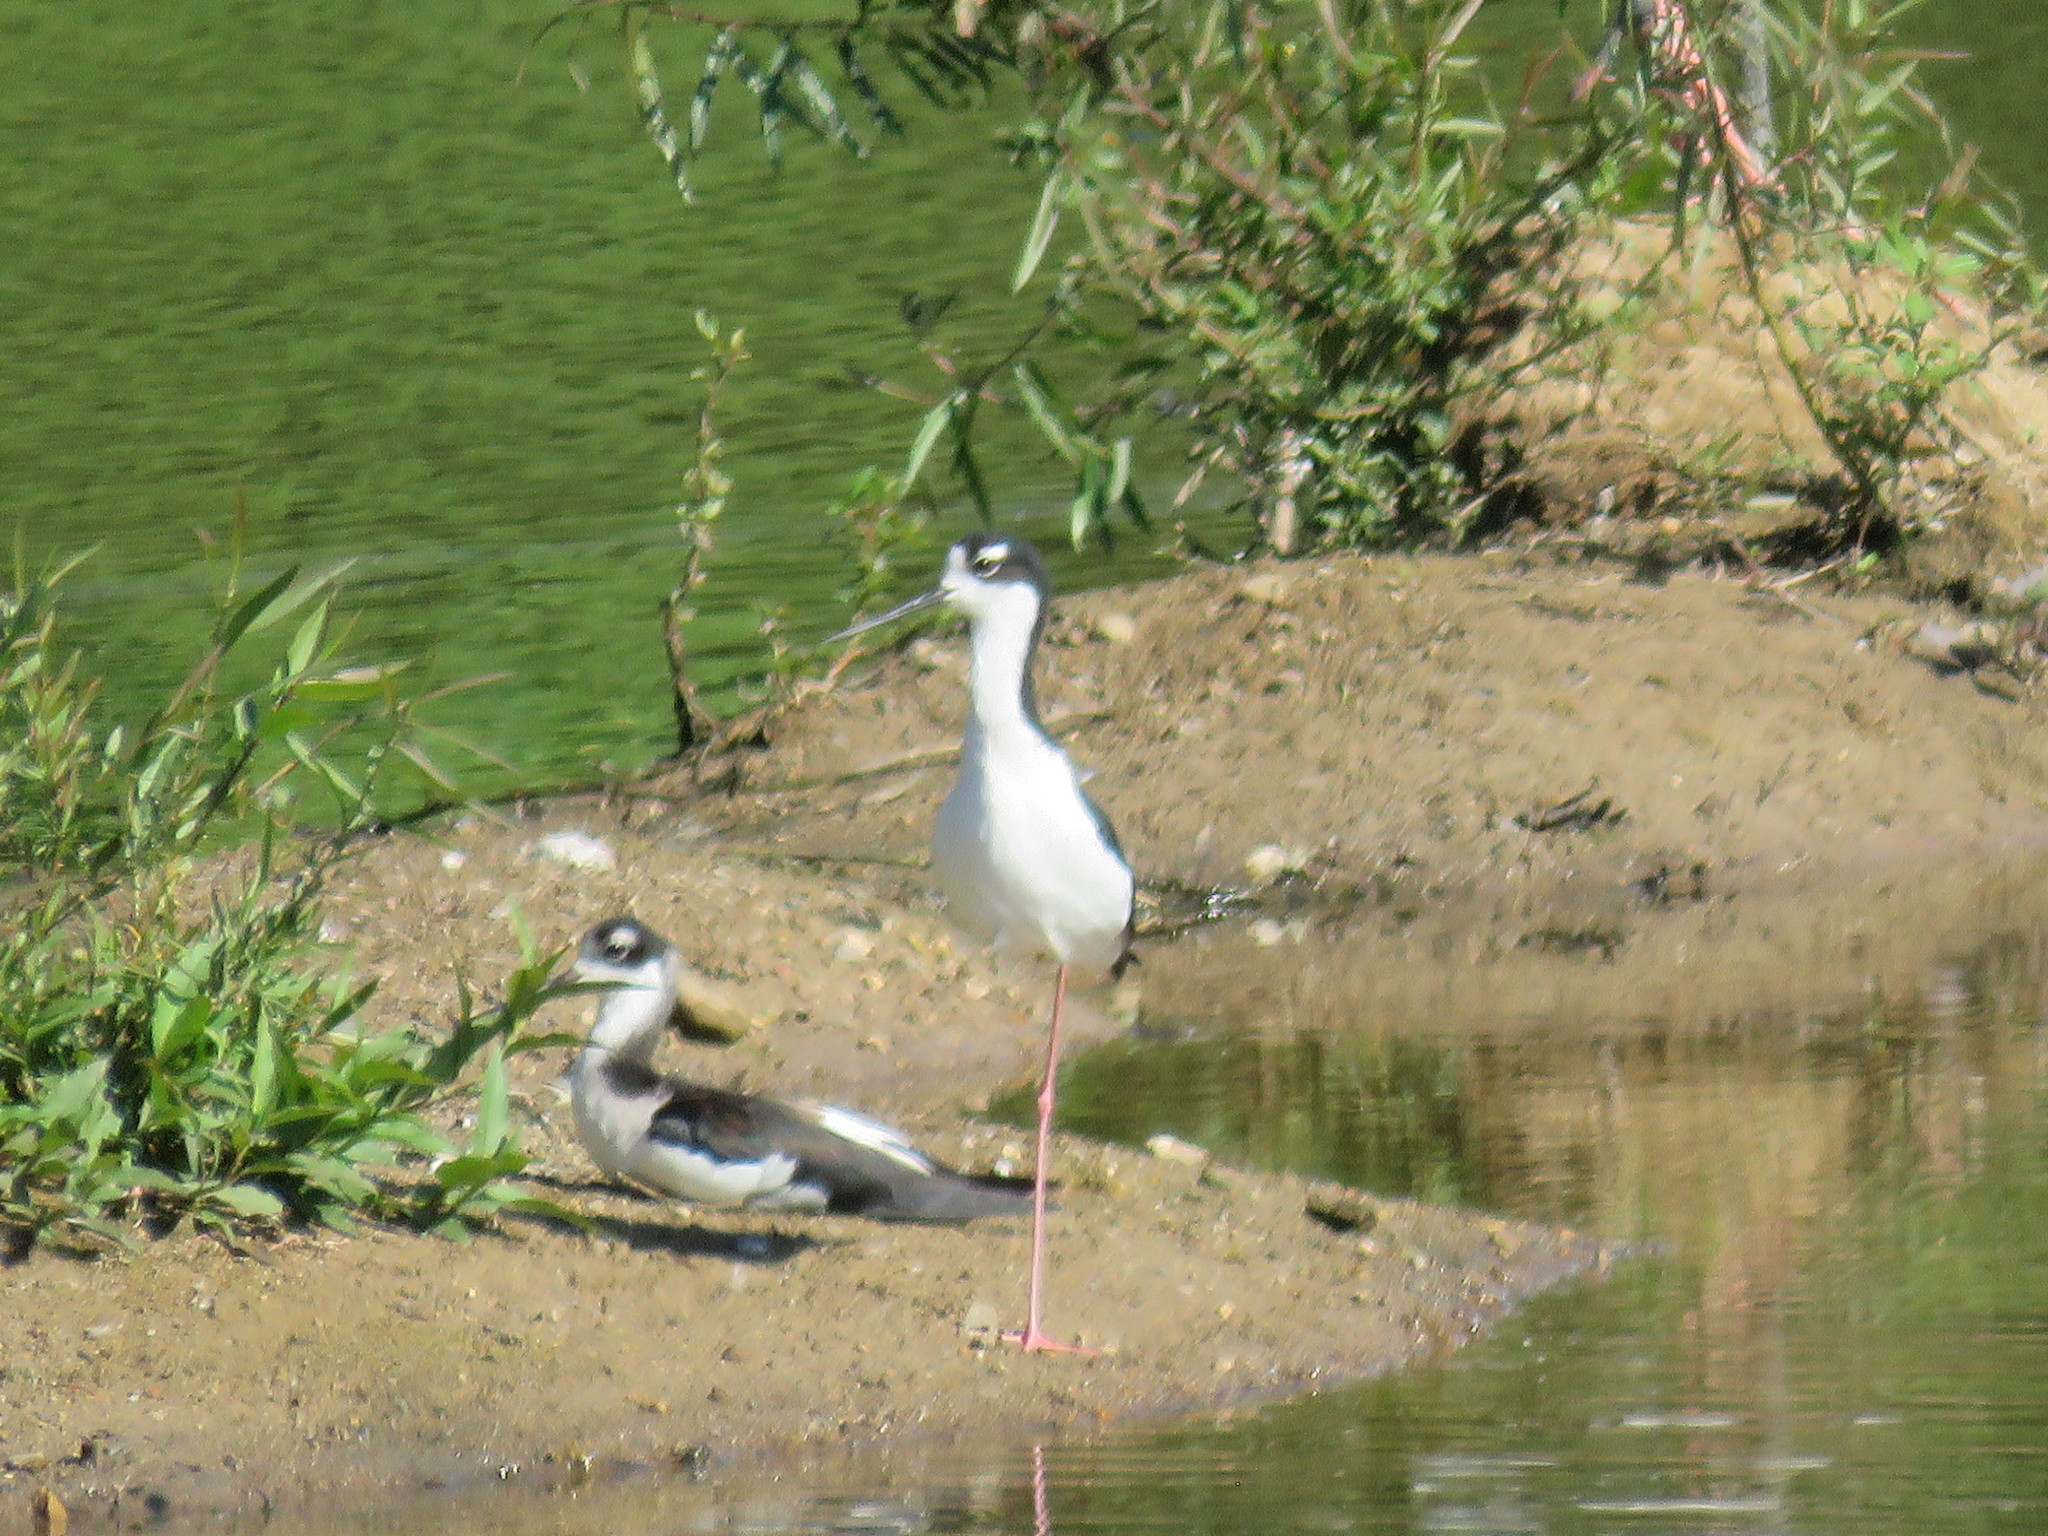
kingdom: Animalia
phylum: Chordata
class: Aves
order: Charadriiformes
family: Recurvirostridae
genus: Himantopus
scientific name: Himantopus mexicanus
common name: Black-necked stilt
